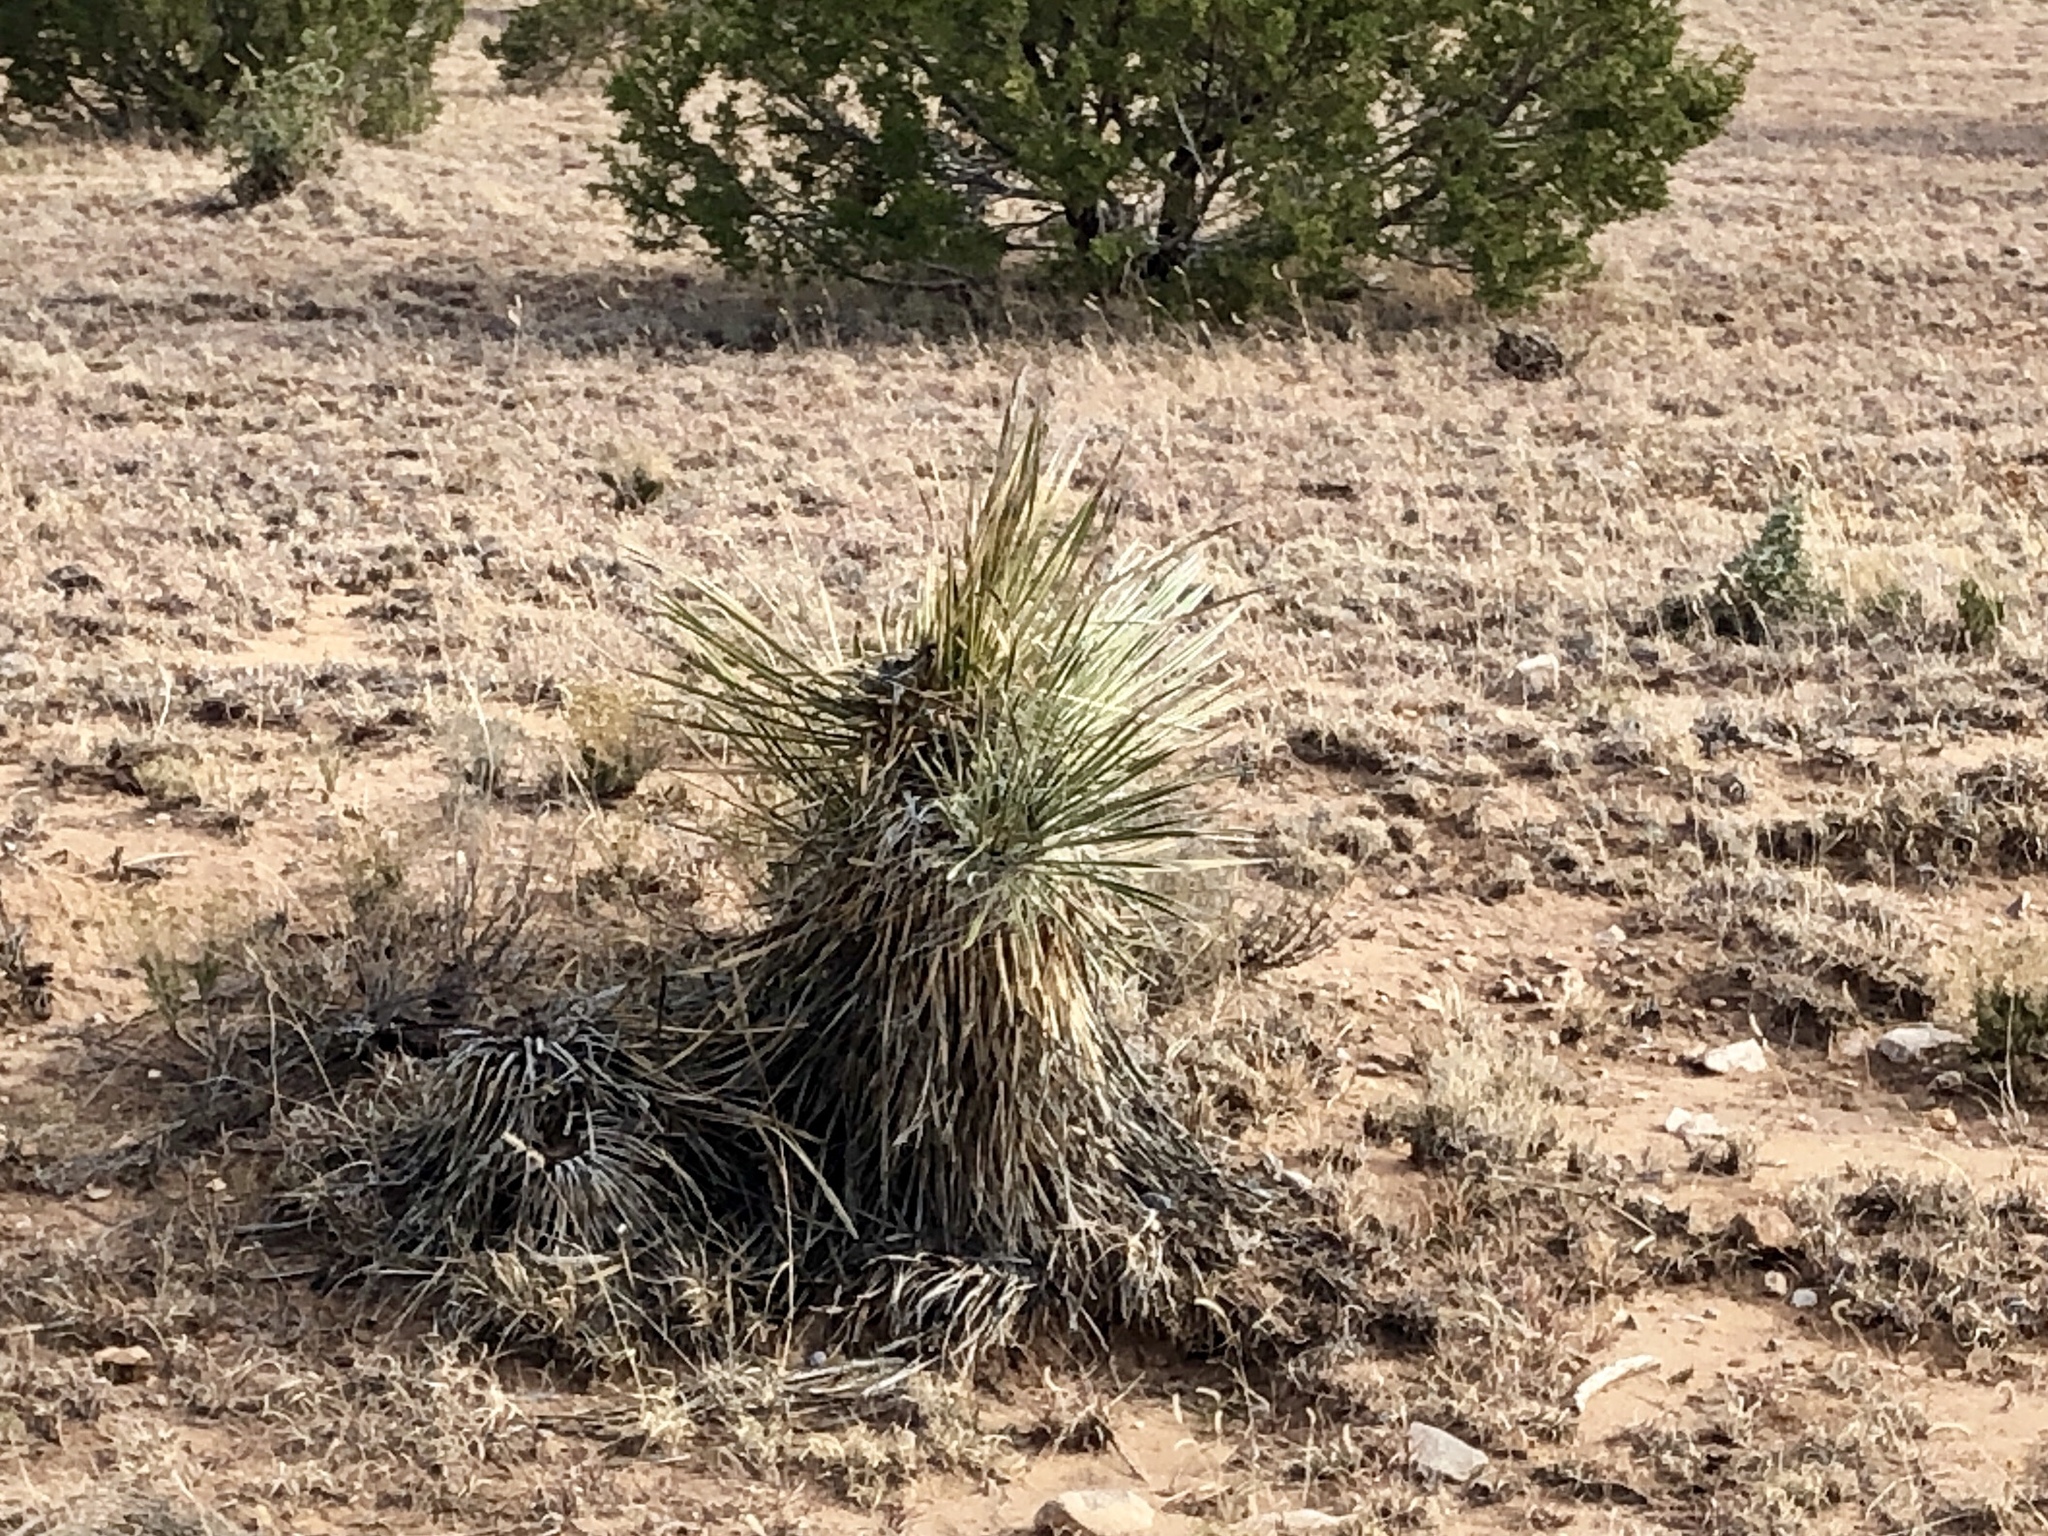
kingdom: Plantae
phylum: Tracheophyta
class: Liliopsida
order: Asparagales
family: Asparagaceae
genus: Yucca
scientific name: Yucca elata
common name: Palmella
